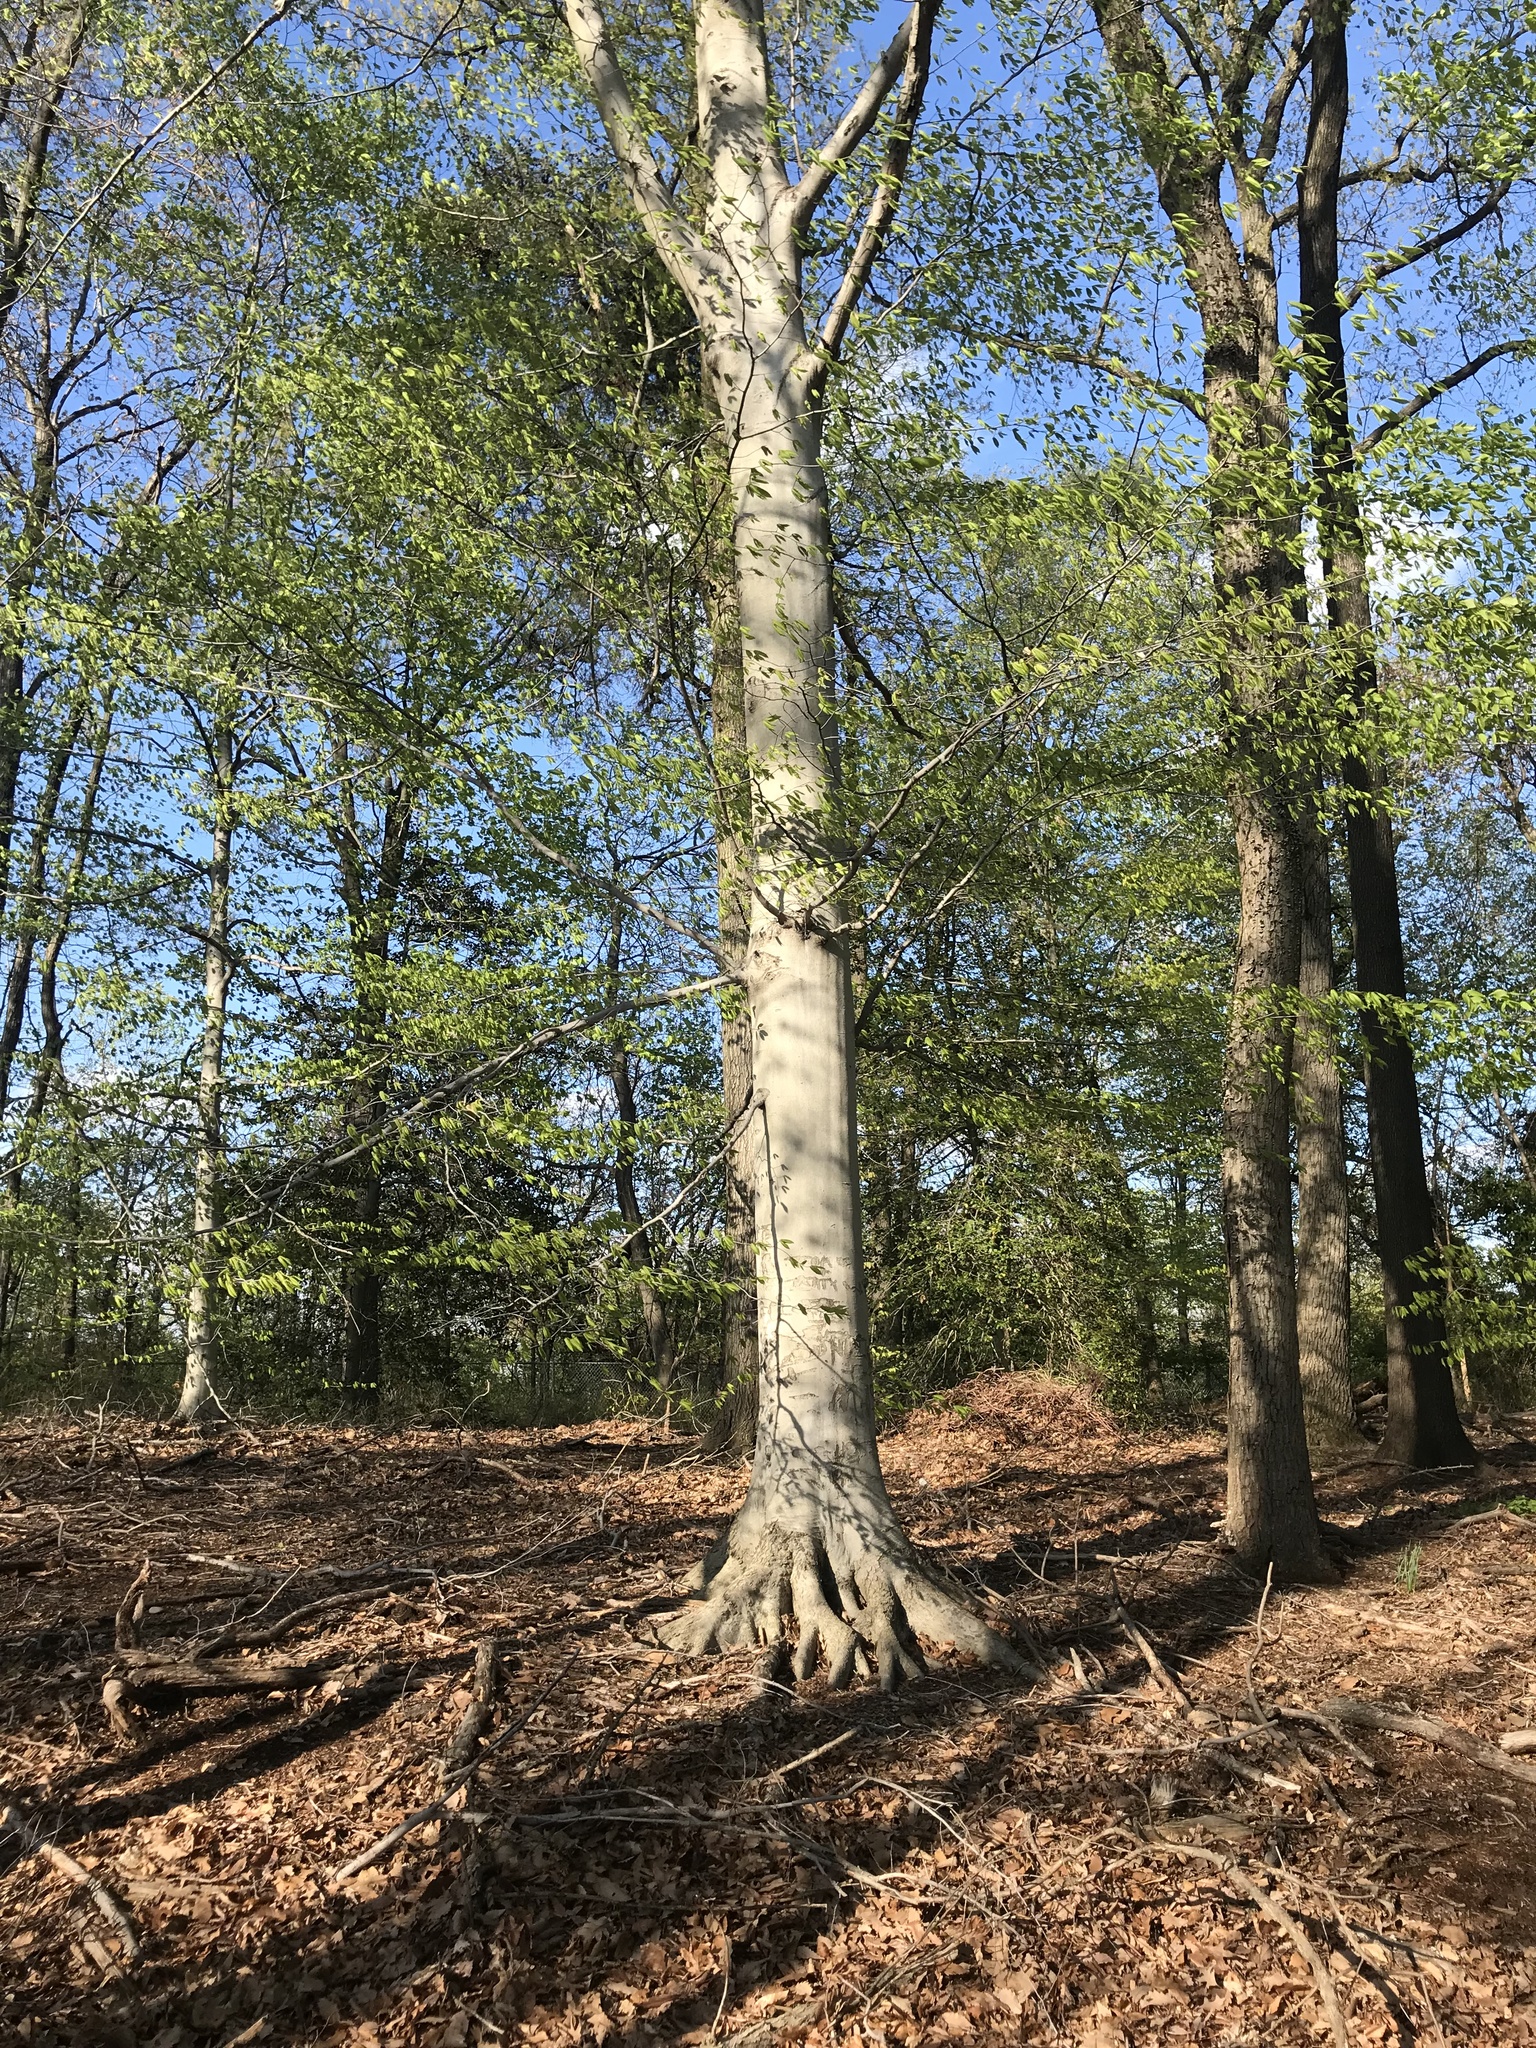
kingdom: Plantae
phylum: Tracheophyta
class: Magnoliopsida
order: Fagales
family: Fagaceae
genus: Fagus
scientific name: Fagus grandifolia
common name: American beech
